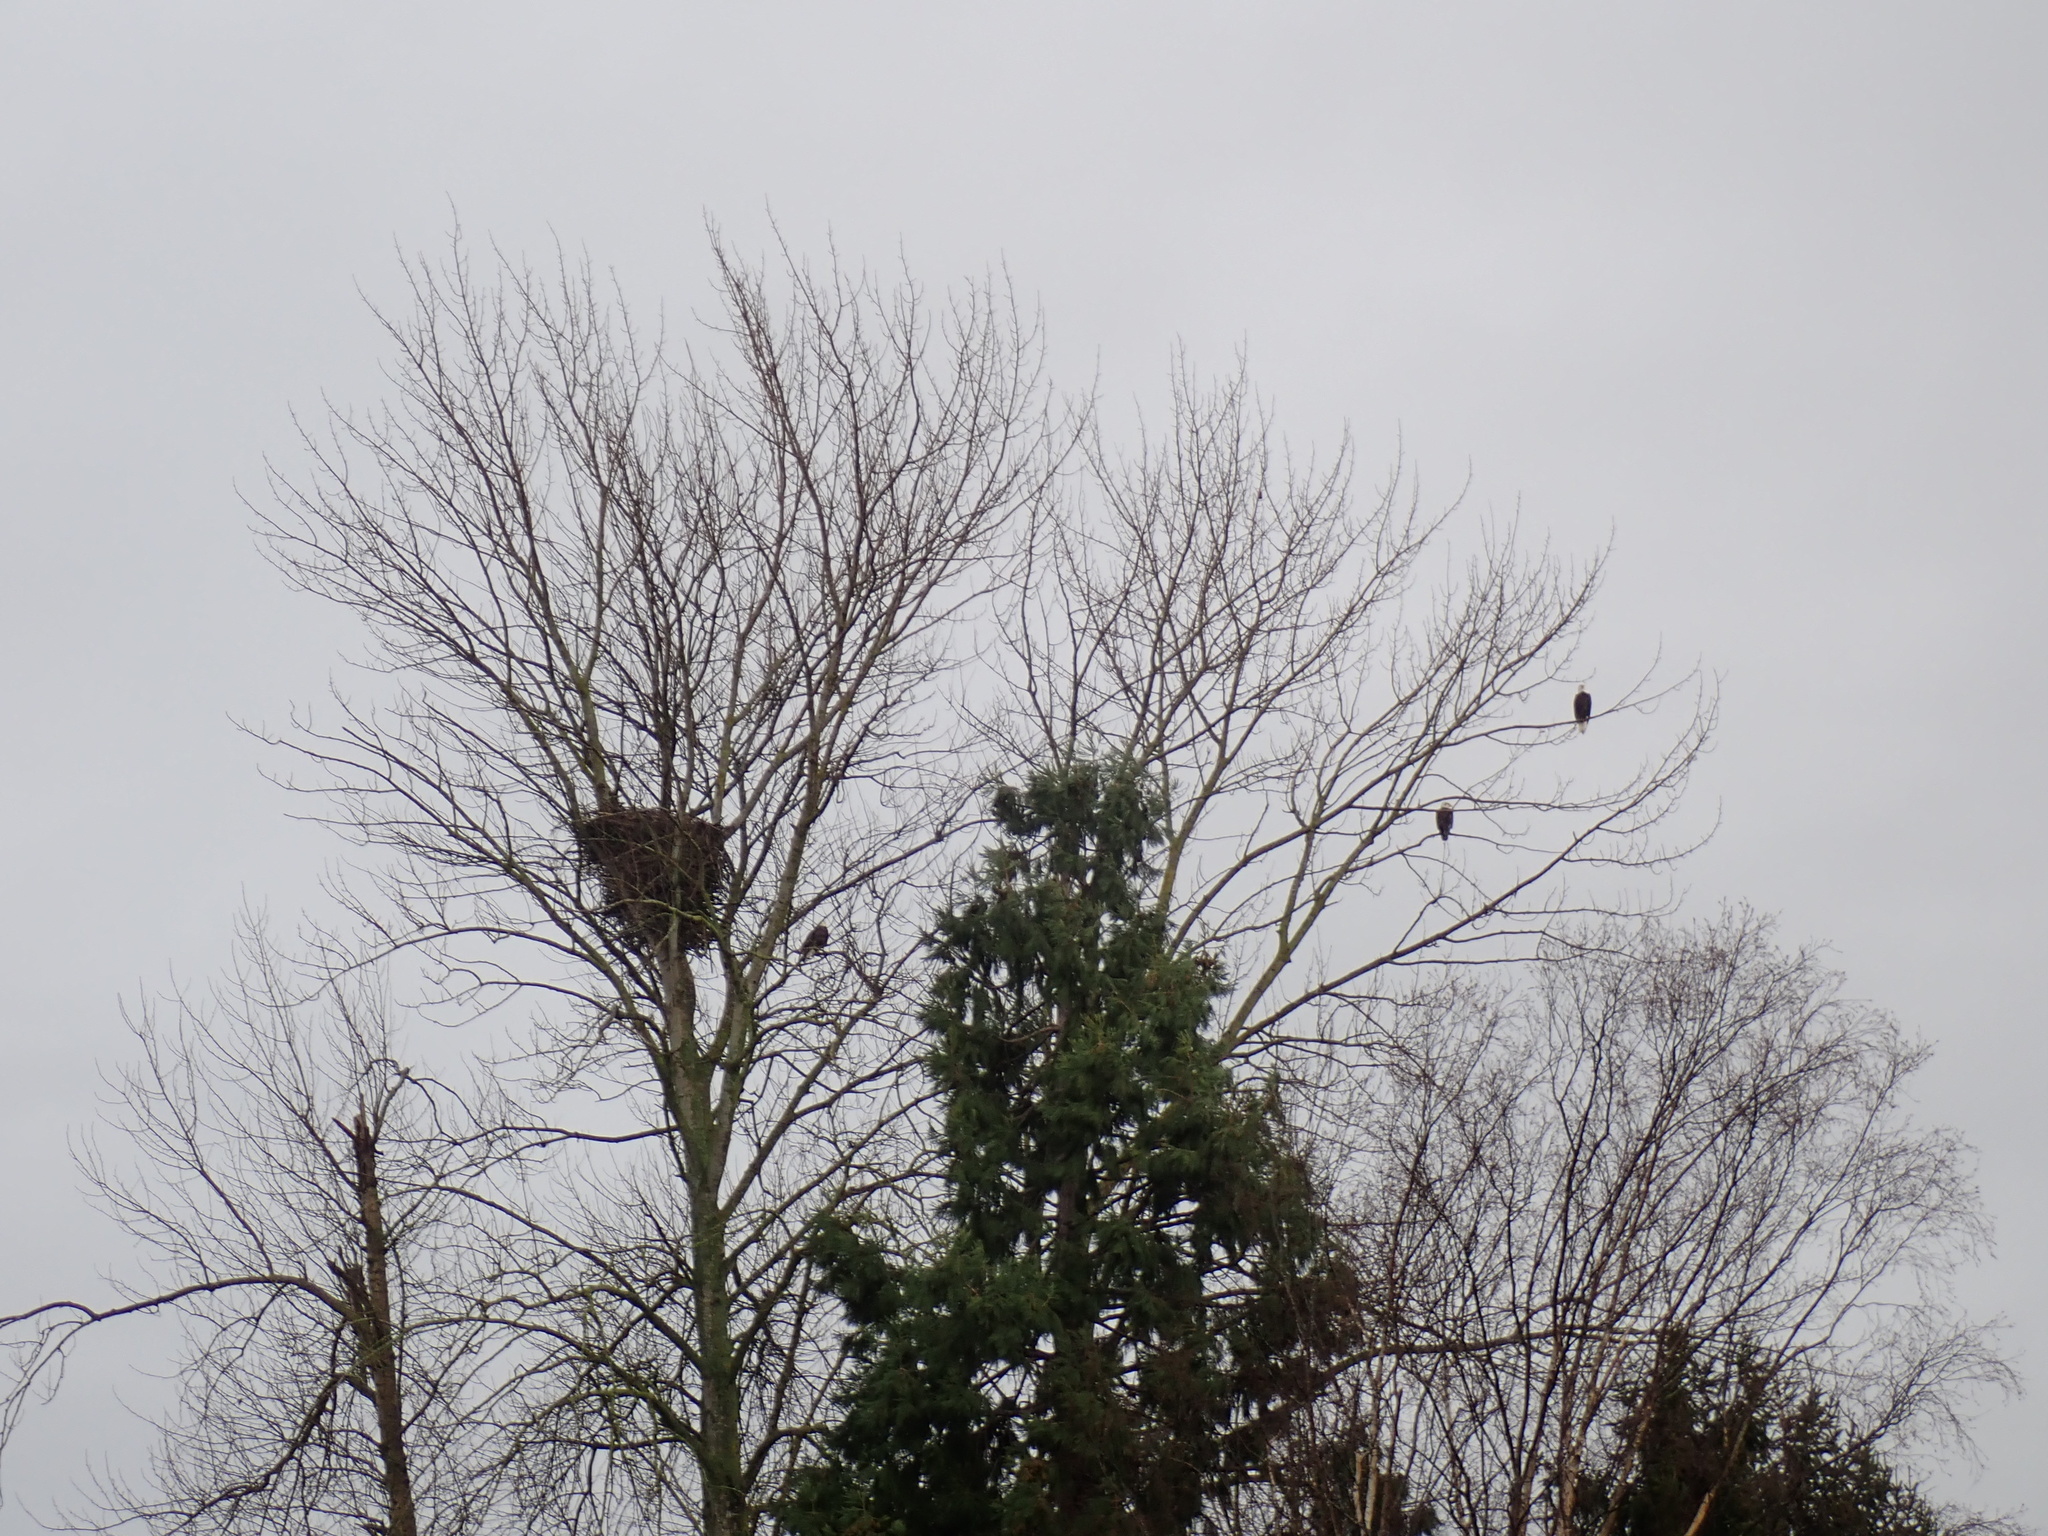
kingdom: Animalia
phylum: Chordata
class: Aves
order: Accipitriformes
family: Accipitridae
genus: Haliaeetus
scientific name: Haliaeetus leucocephalus
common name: Bald eagle
